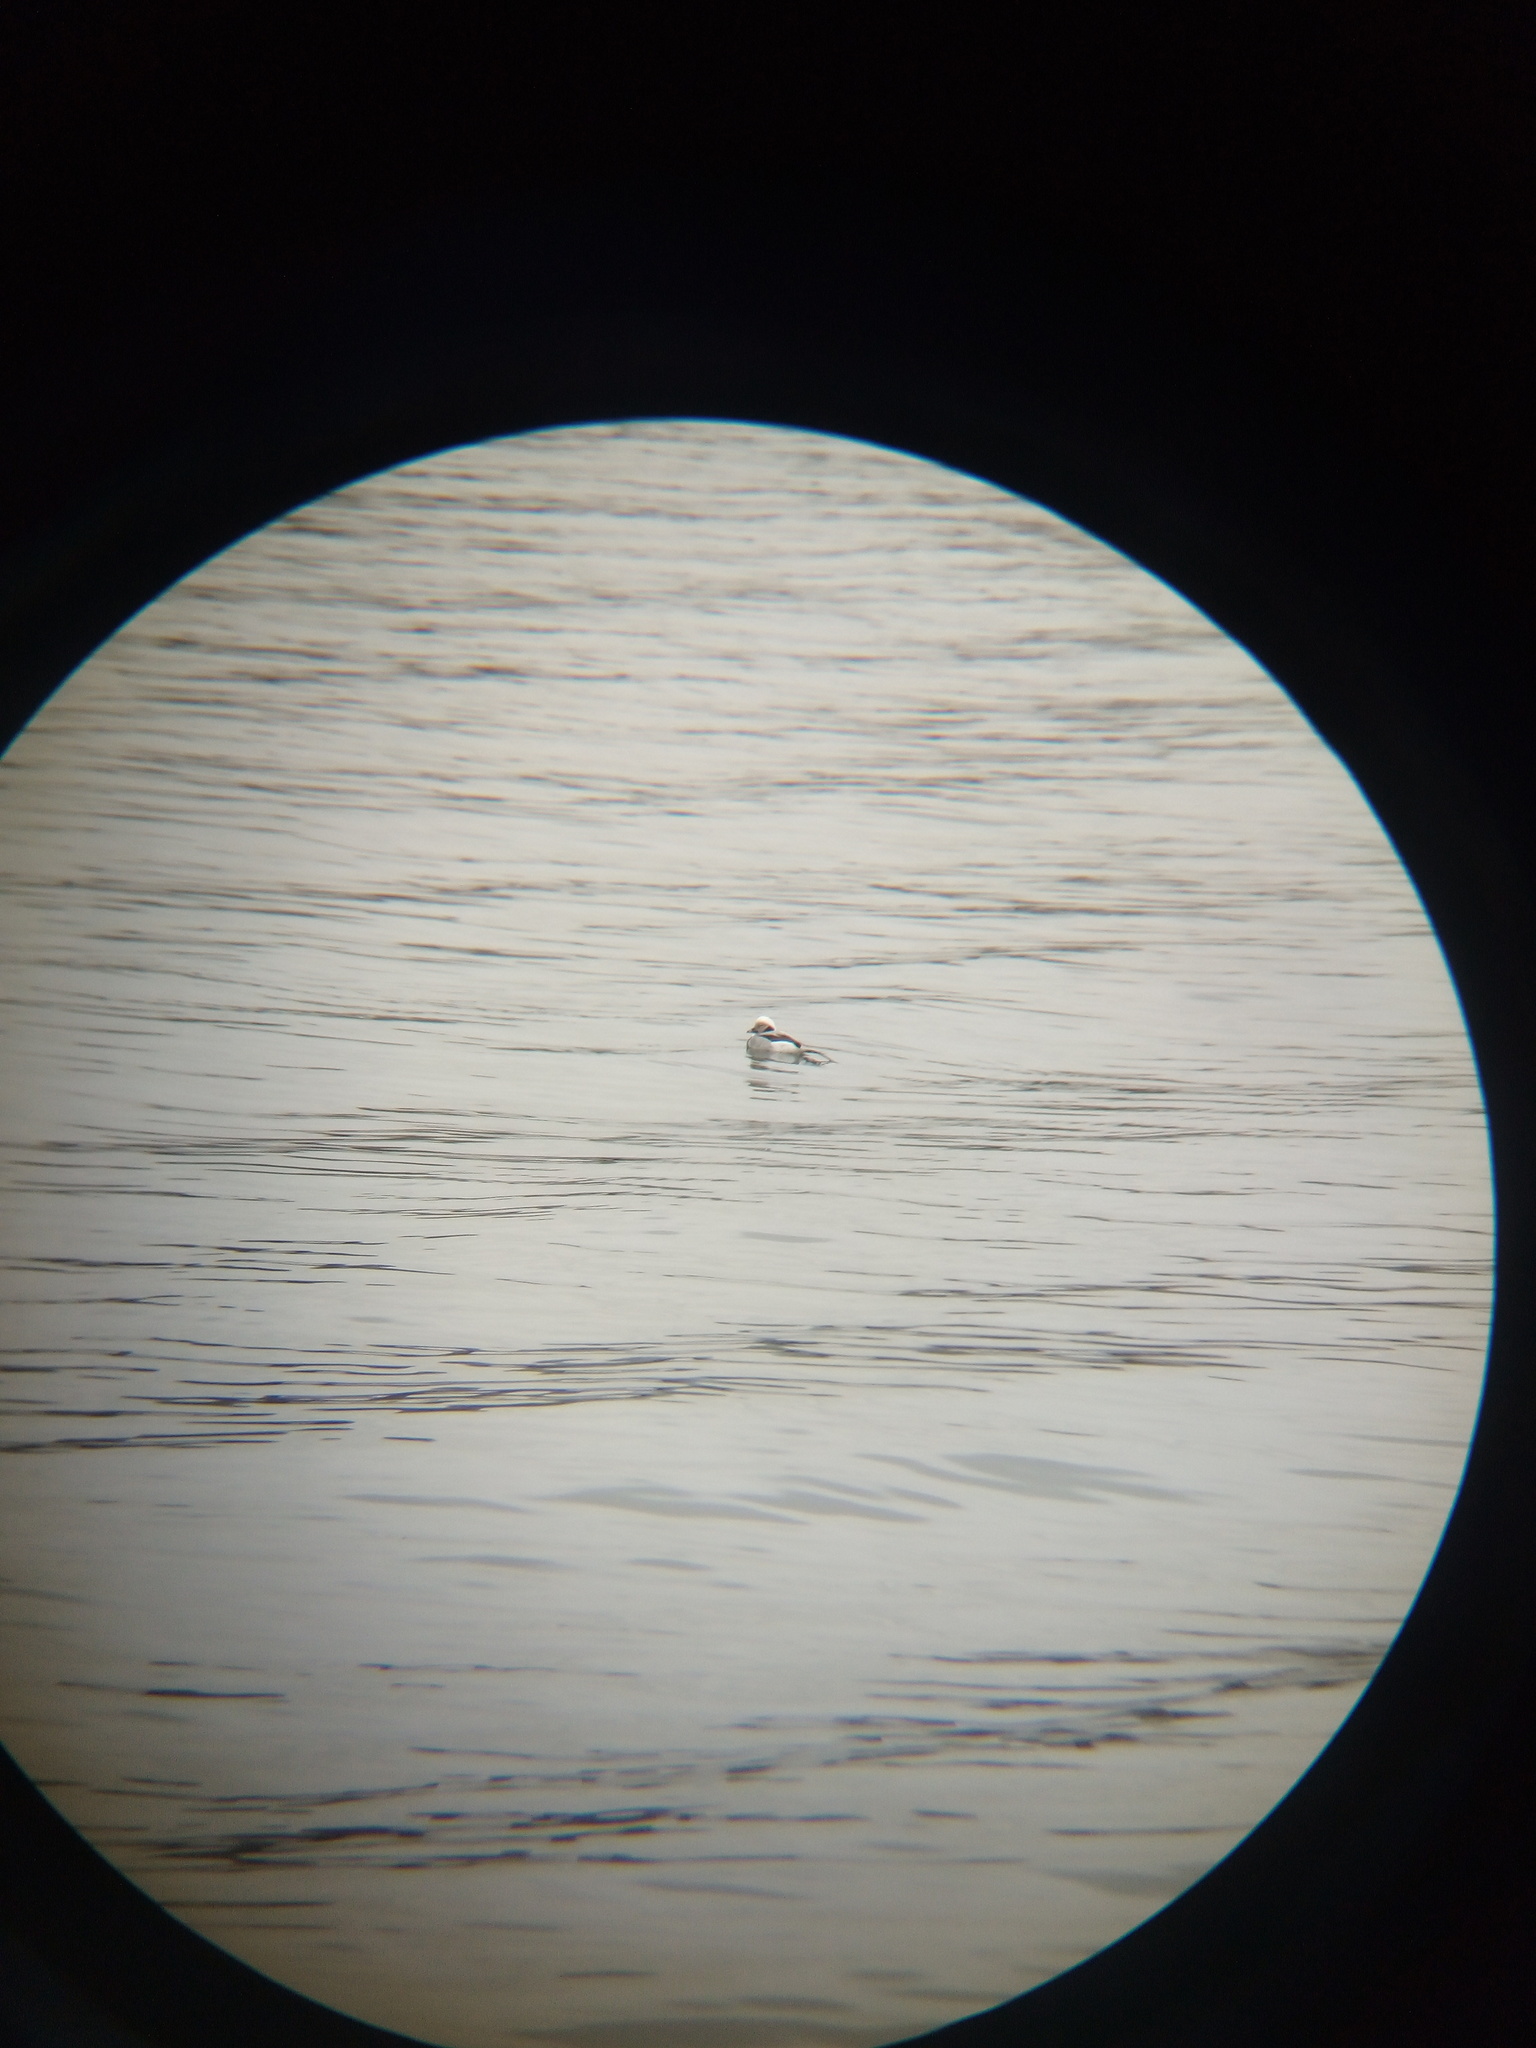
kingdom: Animalia
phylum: Chordata
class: Aves
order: Anseriformes
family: Anatidae
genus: Clangula
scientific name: Clangula hyemalis
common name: Long-tailed duck
